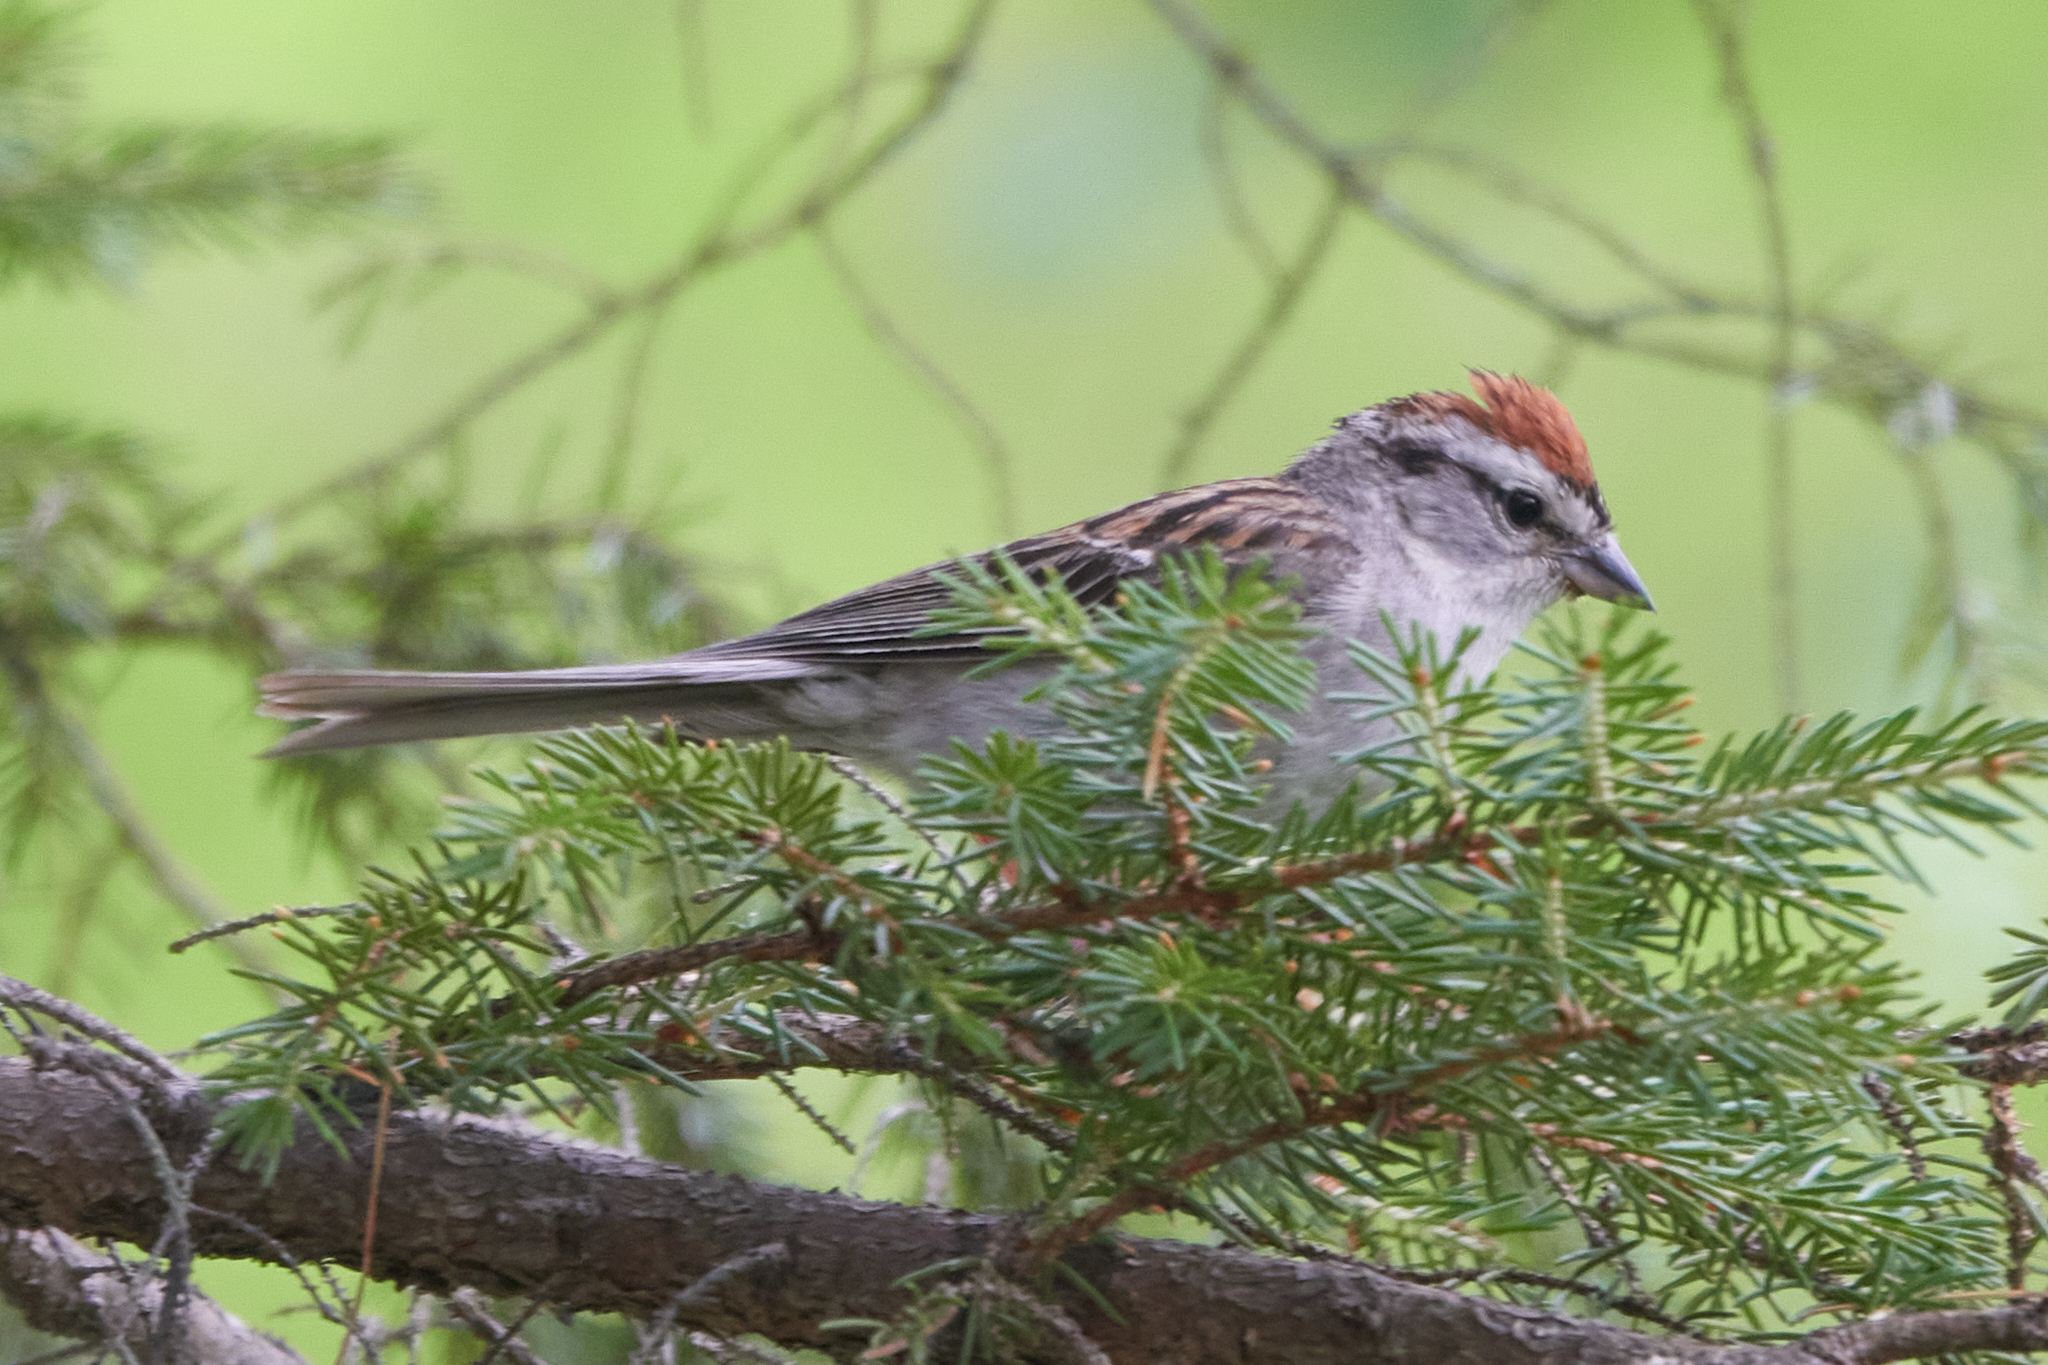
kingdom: Animalia
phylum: Chordata
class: Aves
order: Passeriformes
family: Passerellidae
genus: Spizella
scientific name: Spizella passerina
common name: Chipping sparrow
